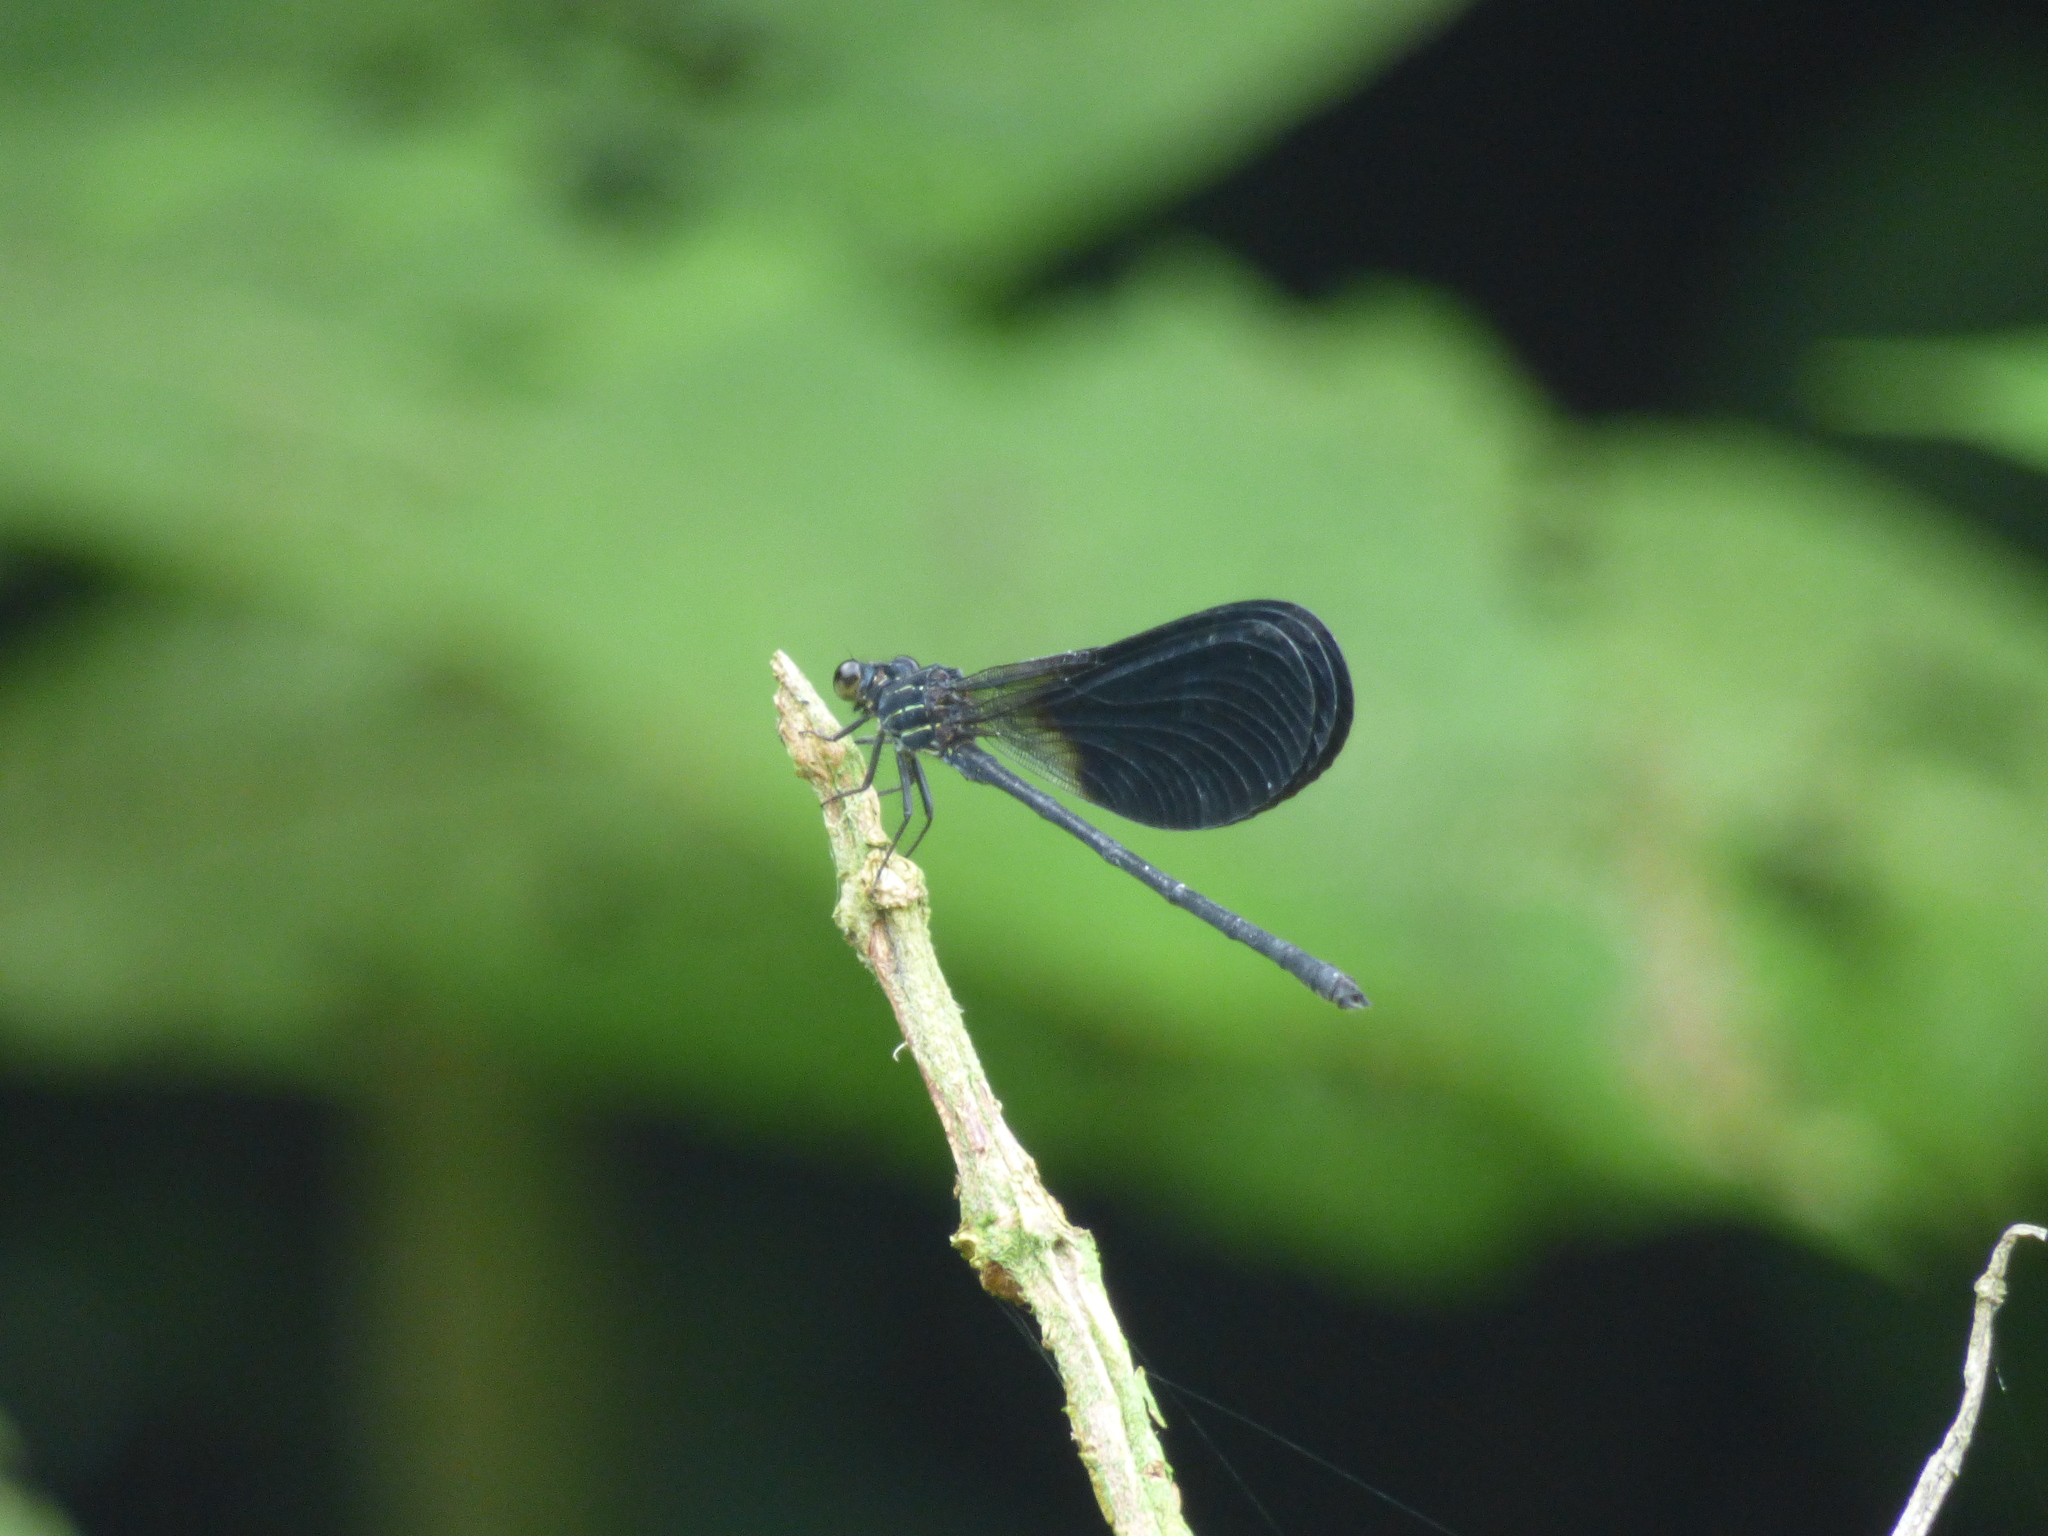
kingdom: Animalia
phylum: Arthropoda
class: Insecta
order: Odonata
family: Polythoridae
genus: Polythore
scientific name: Polythore gigantea
